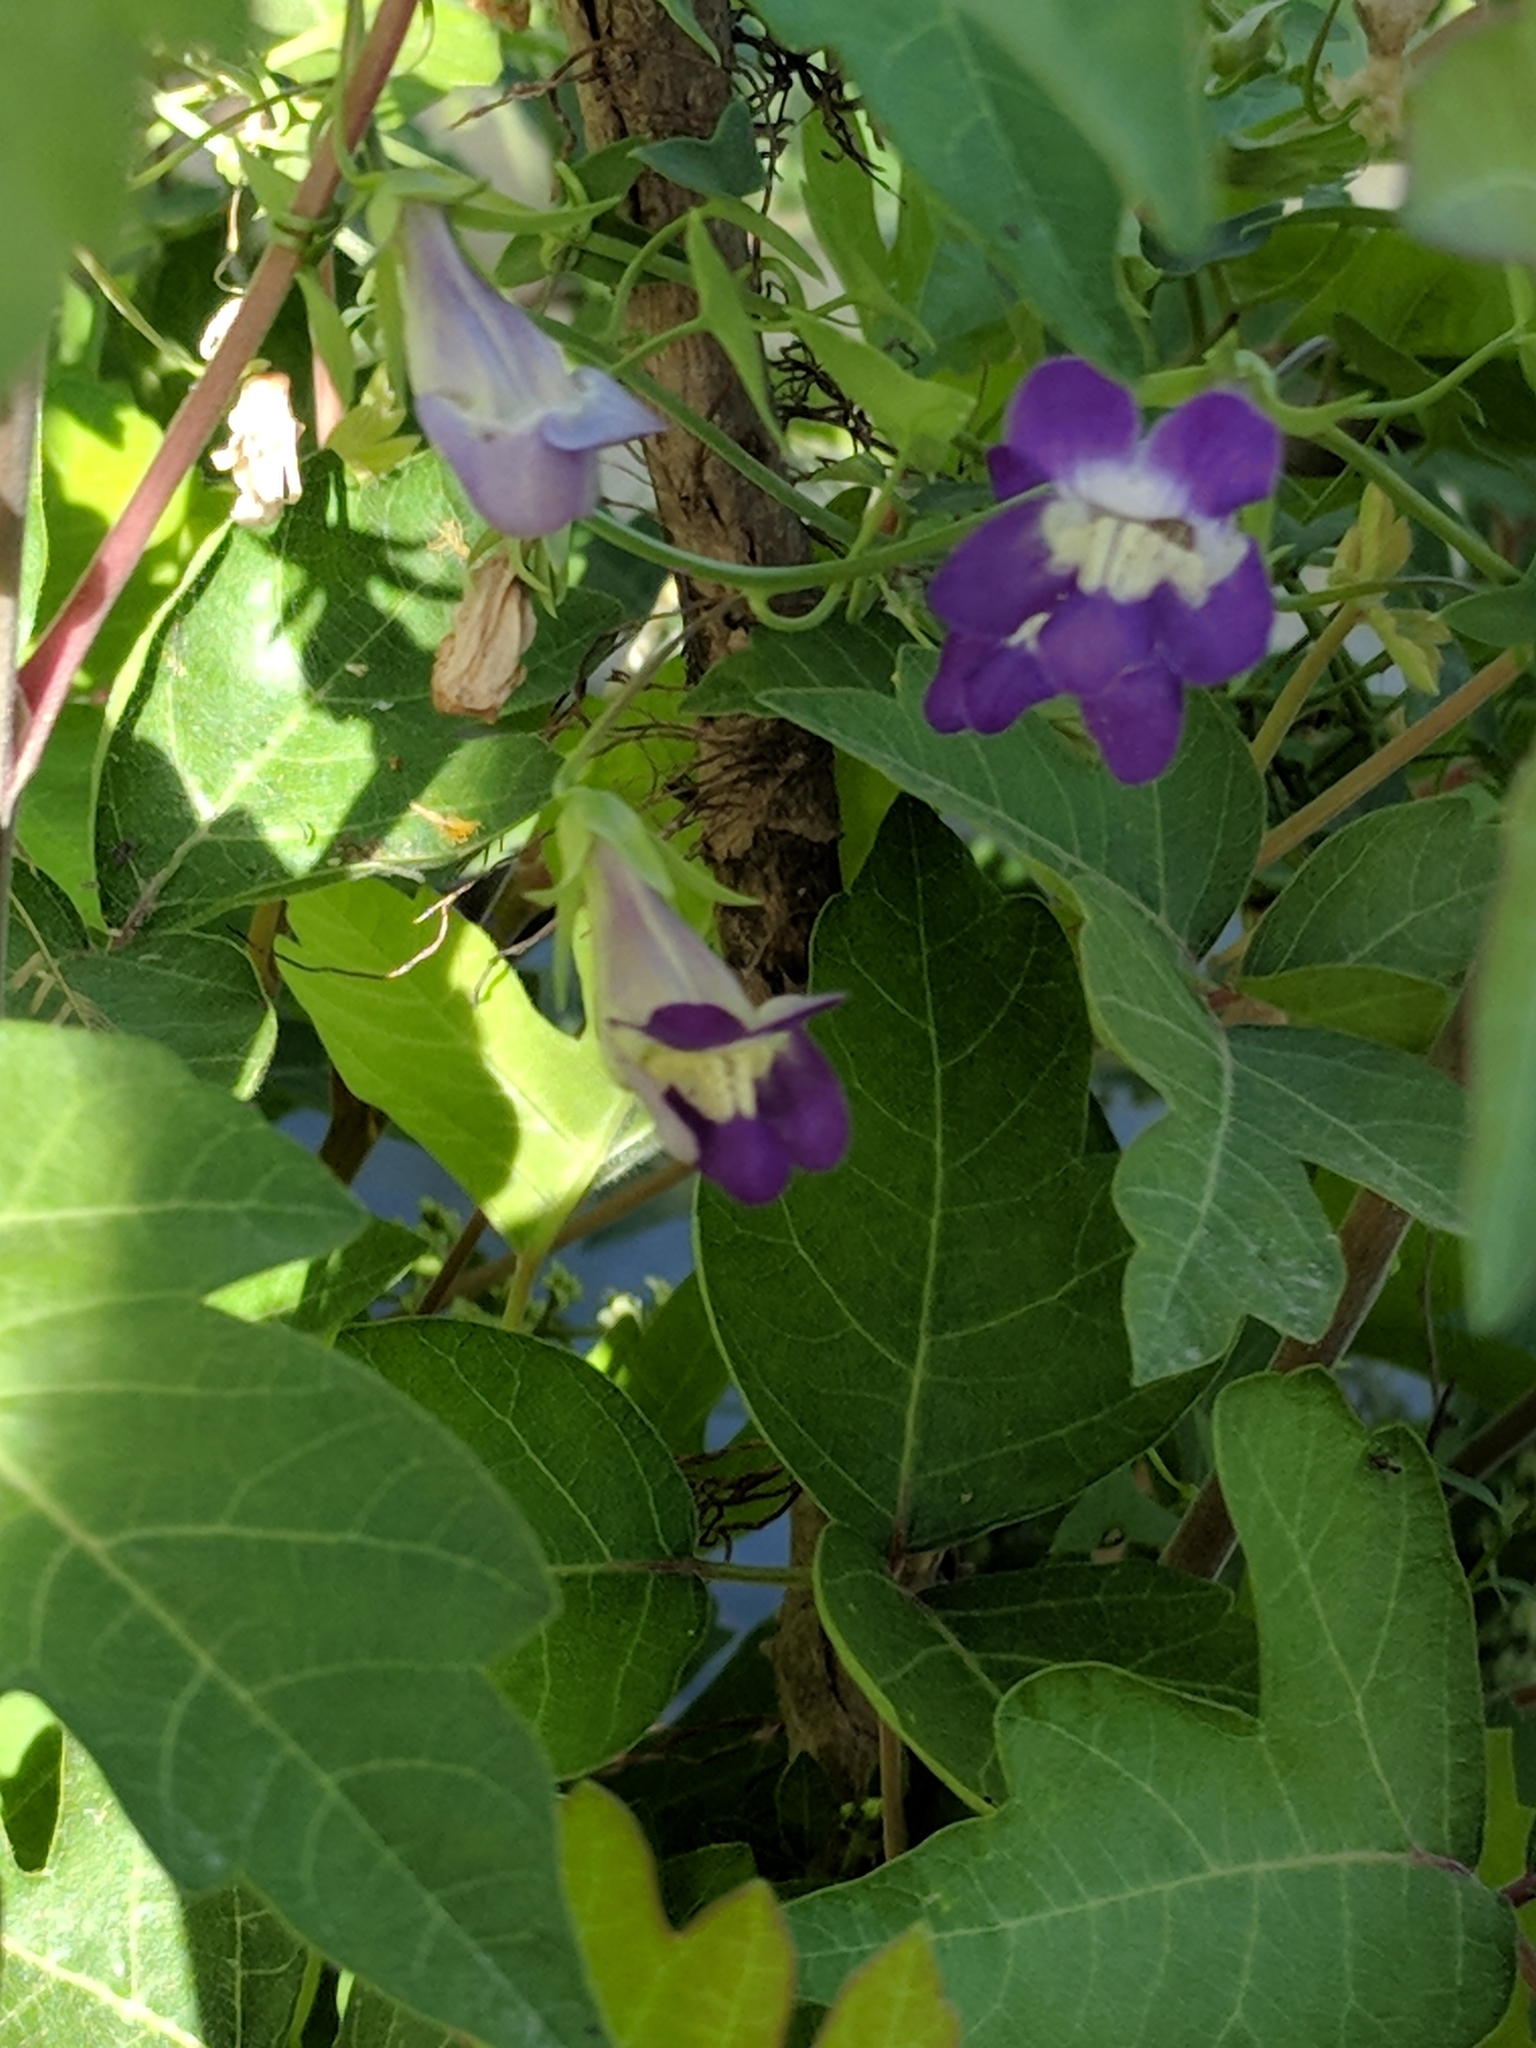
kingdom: Plantae
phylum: Tracheophyta
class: Magnoliopsida
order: Lamiales
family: Plantaginaceae
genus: Maurandella
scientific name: Maurandella antirrhiniflora
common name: Violet twining-snapdragon
